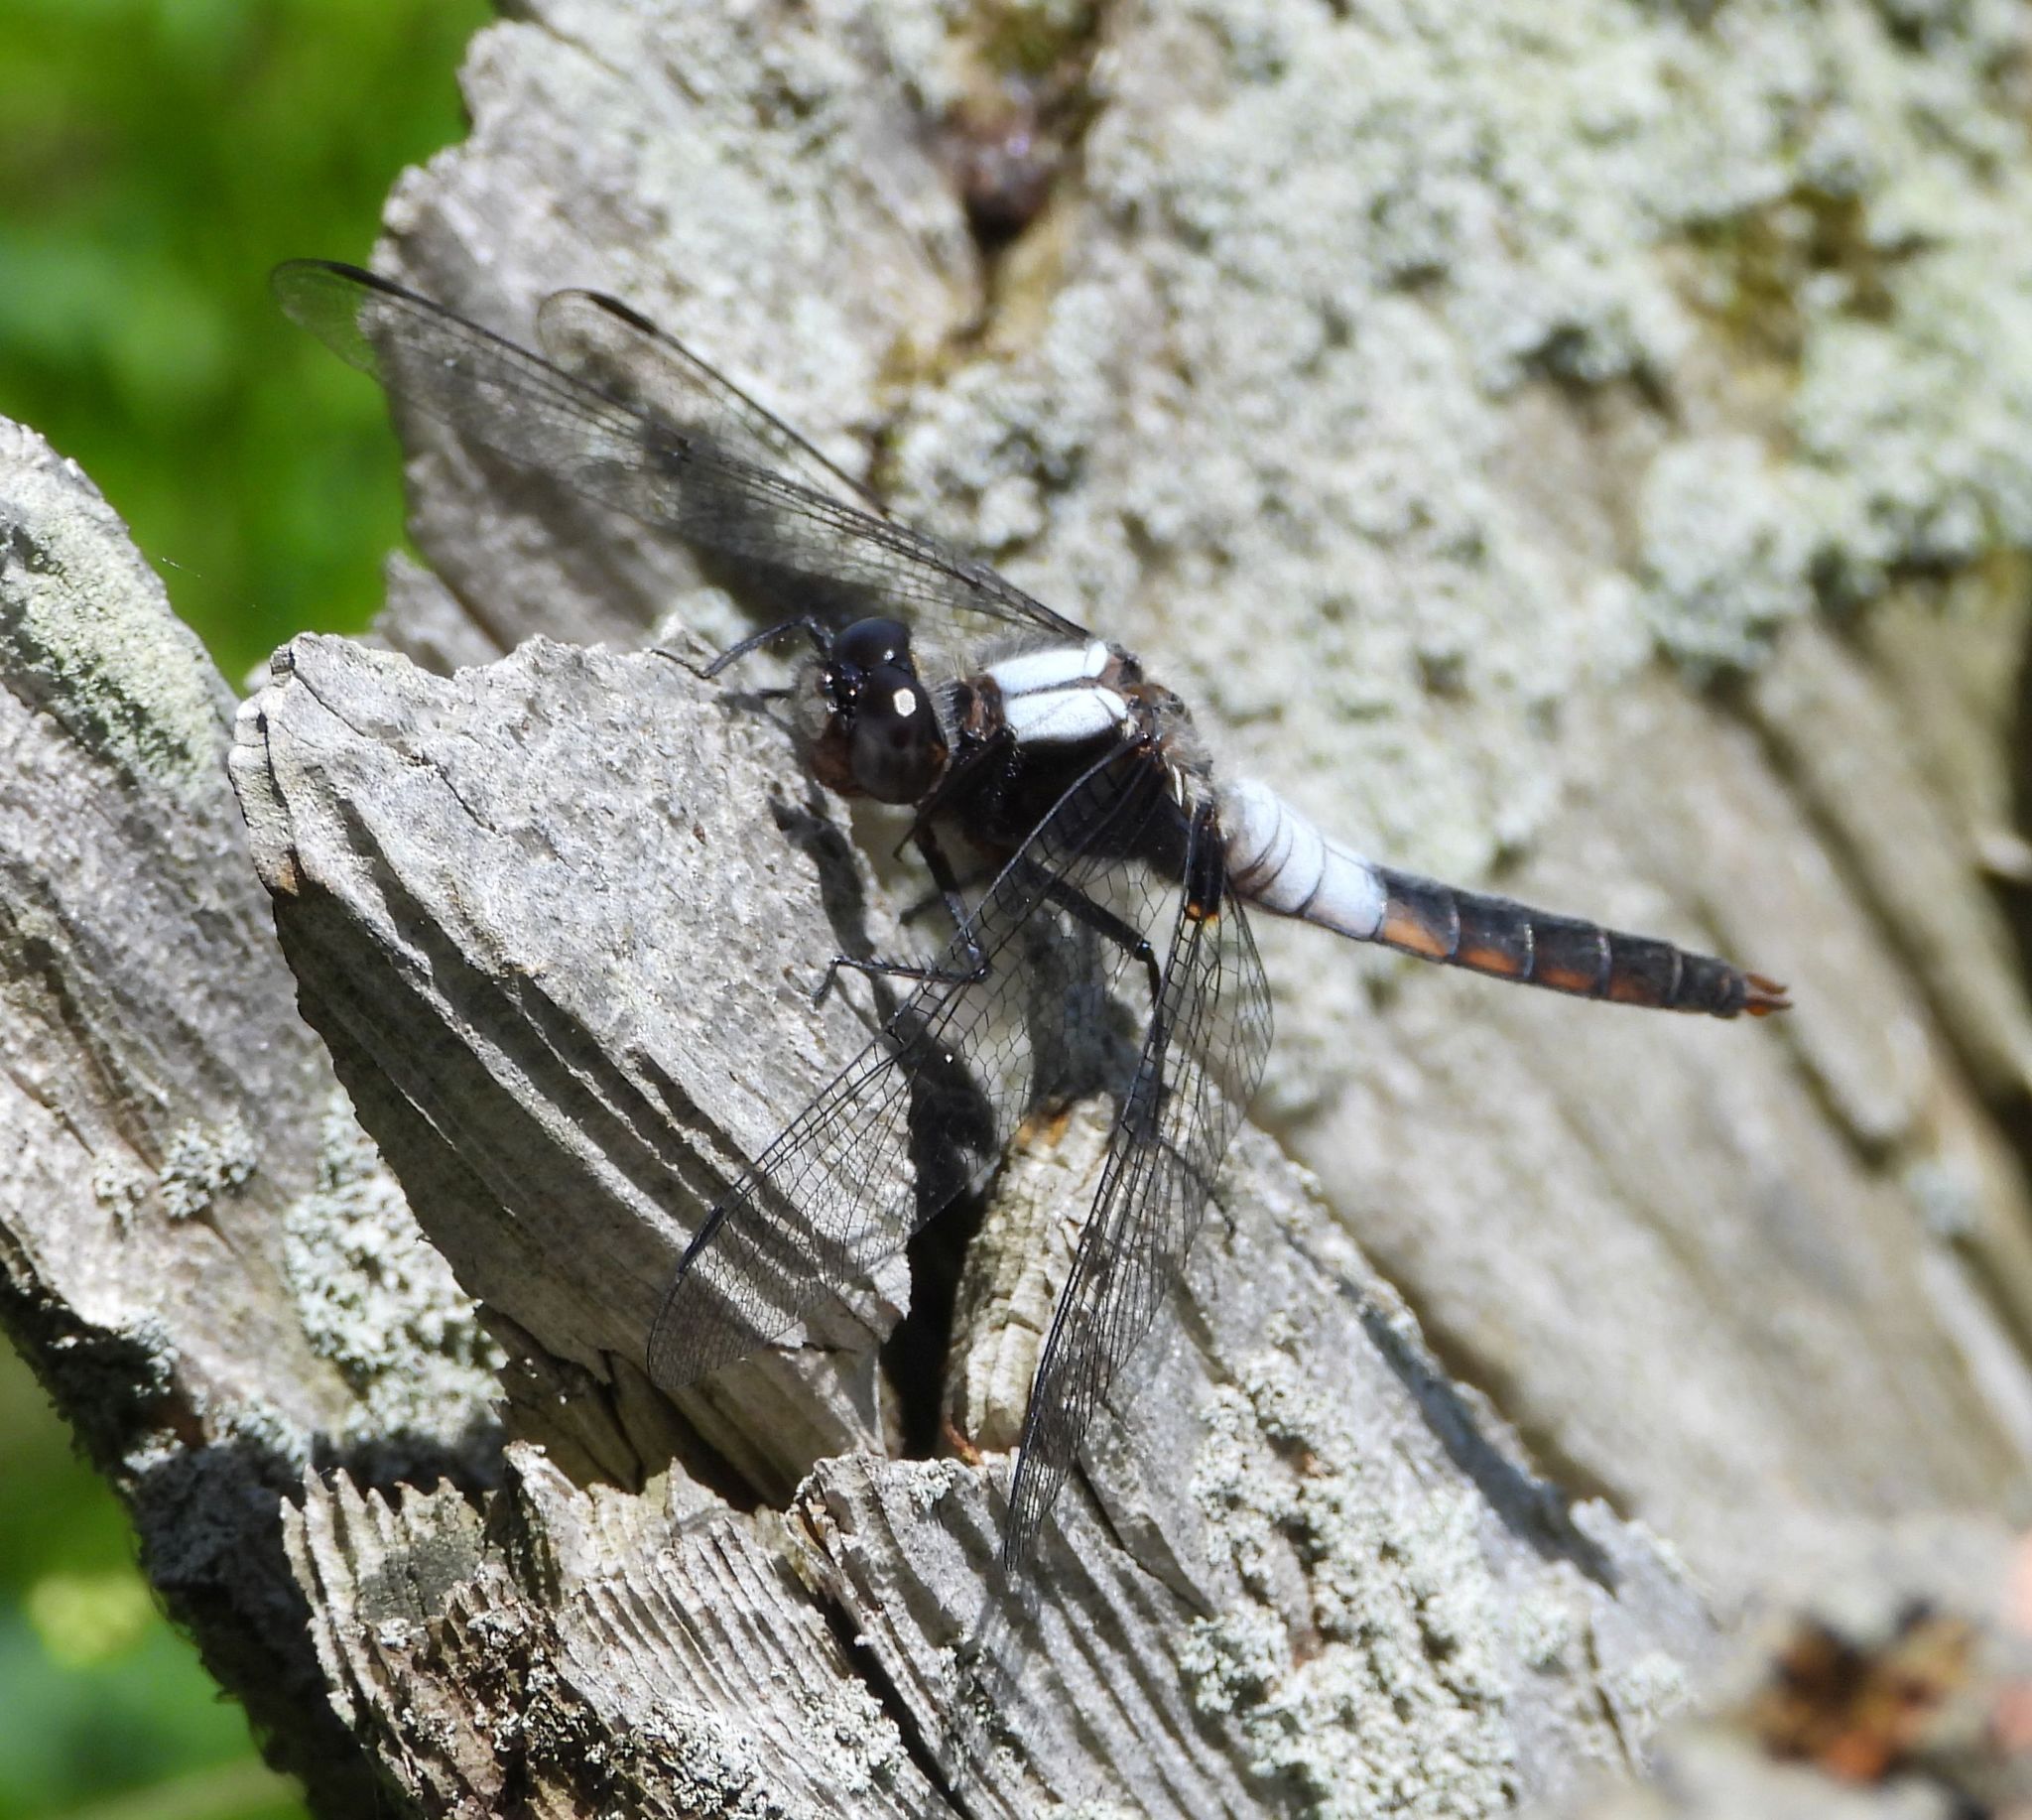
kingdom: Animalia
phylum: Arthropoda
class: Insecta
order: Odonata
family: Libellulidae
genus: Ladona
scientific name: Ladona julia
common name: Chalk-fronted corporal
